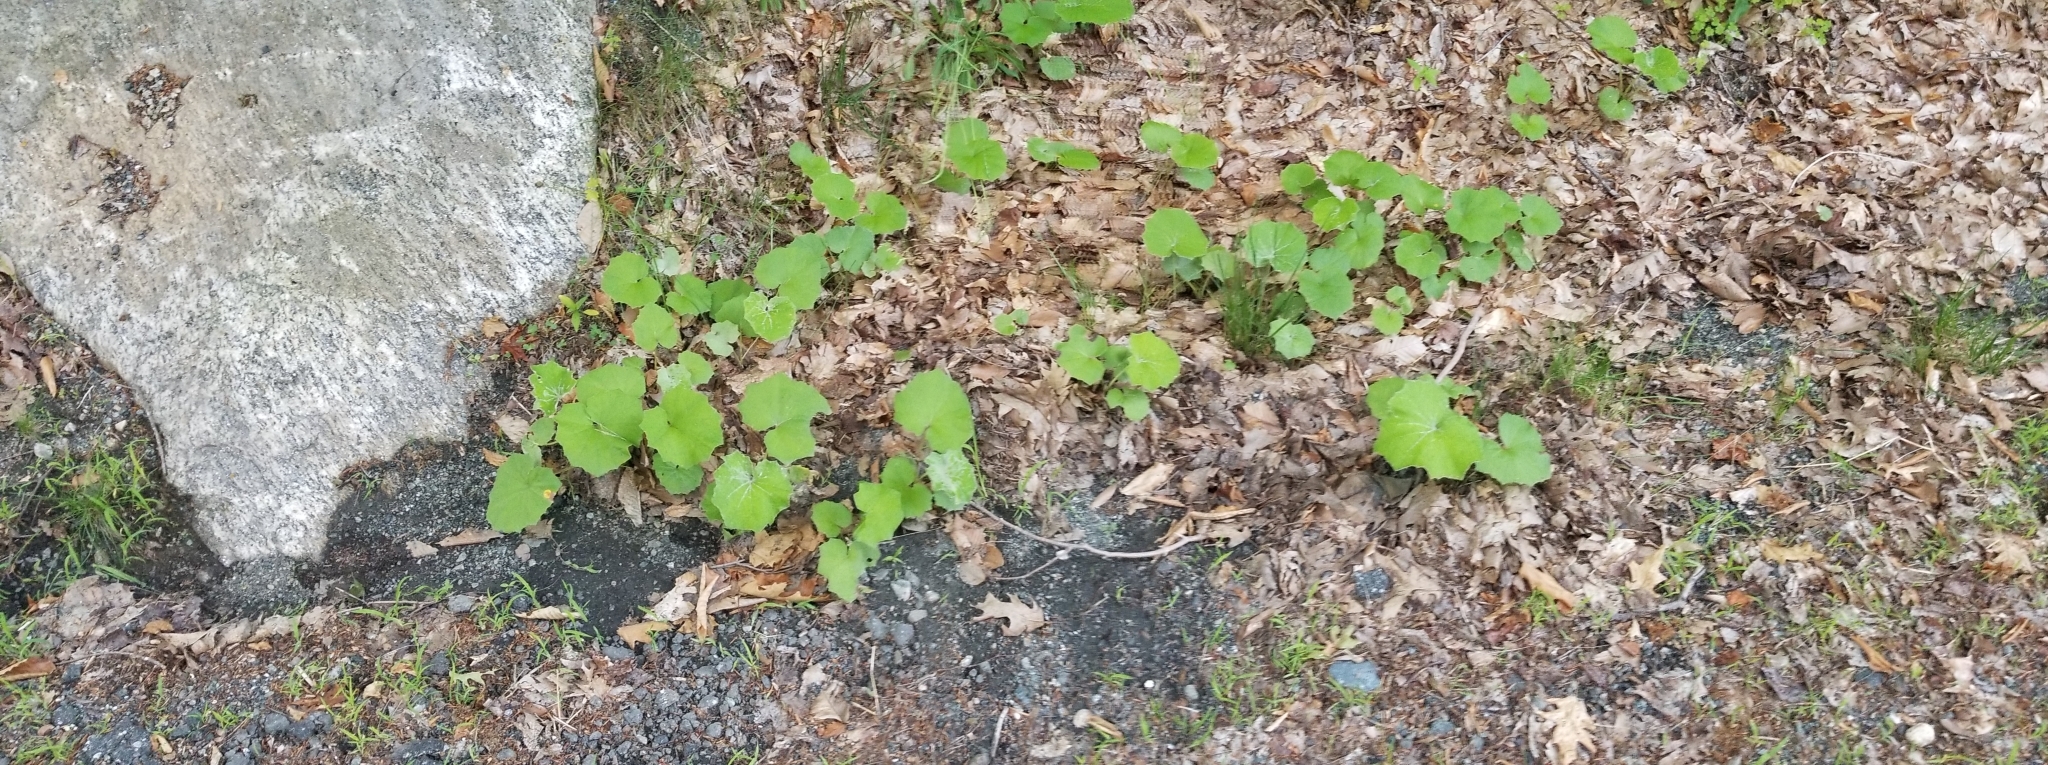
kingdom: Plantae
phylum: Tracheophyta
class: Magnoliopsida
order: Asterales
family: Asteraceae
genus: Tussilago
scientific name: Tussilago farfara
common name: Coltsfoot
